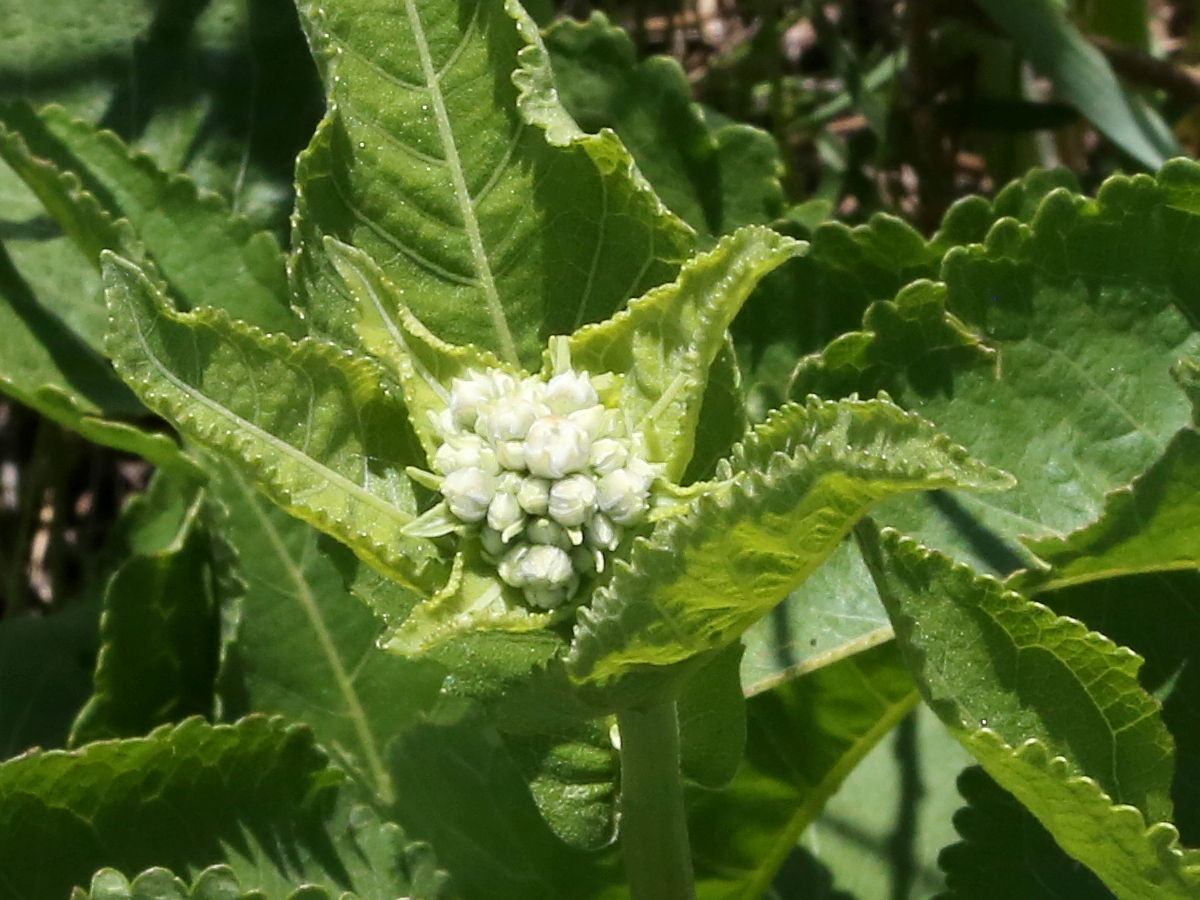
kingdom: Plantae
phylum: Tracheophyta
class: Magnoliopsida
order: Asterales
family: Asteraceae
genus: Parthenium
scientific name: Parthenium integrifolium
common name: American feverfew
